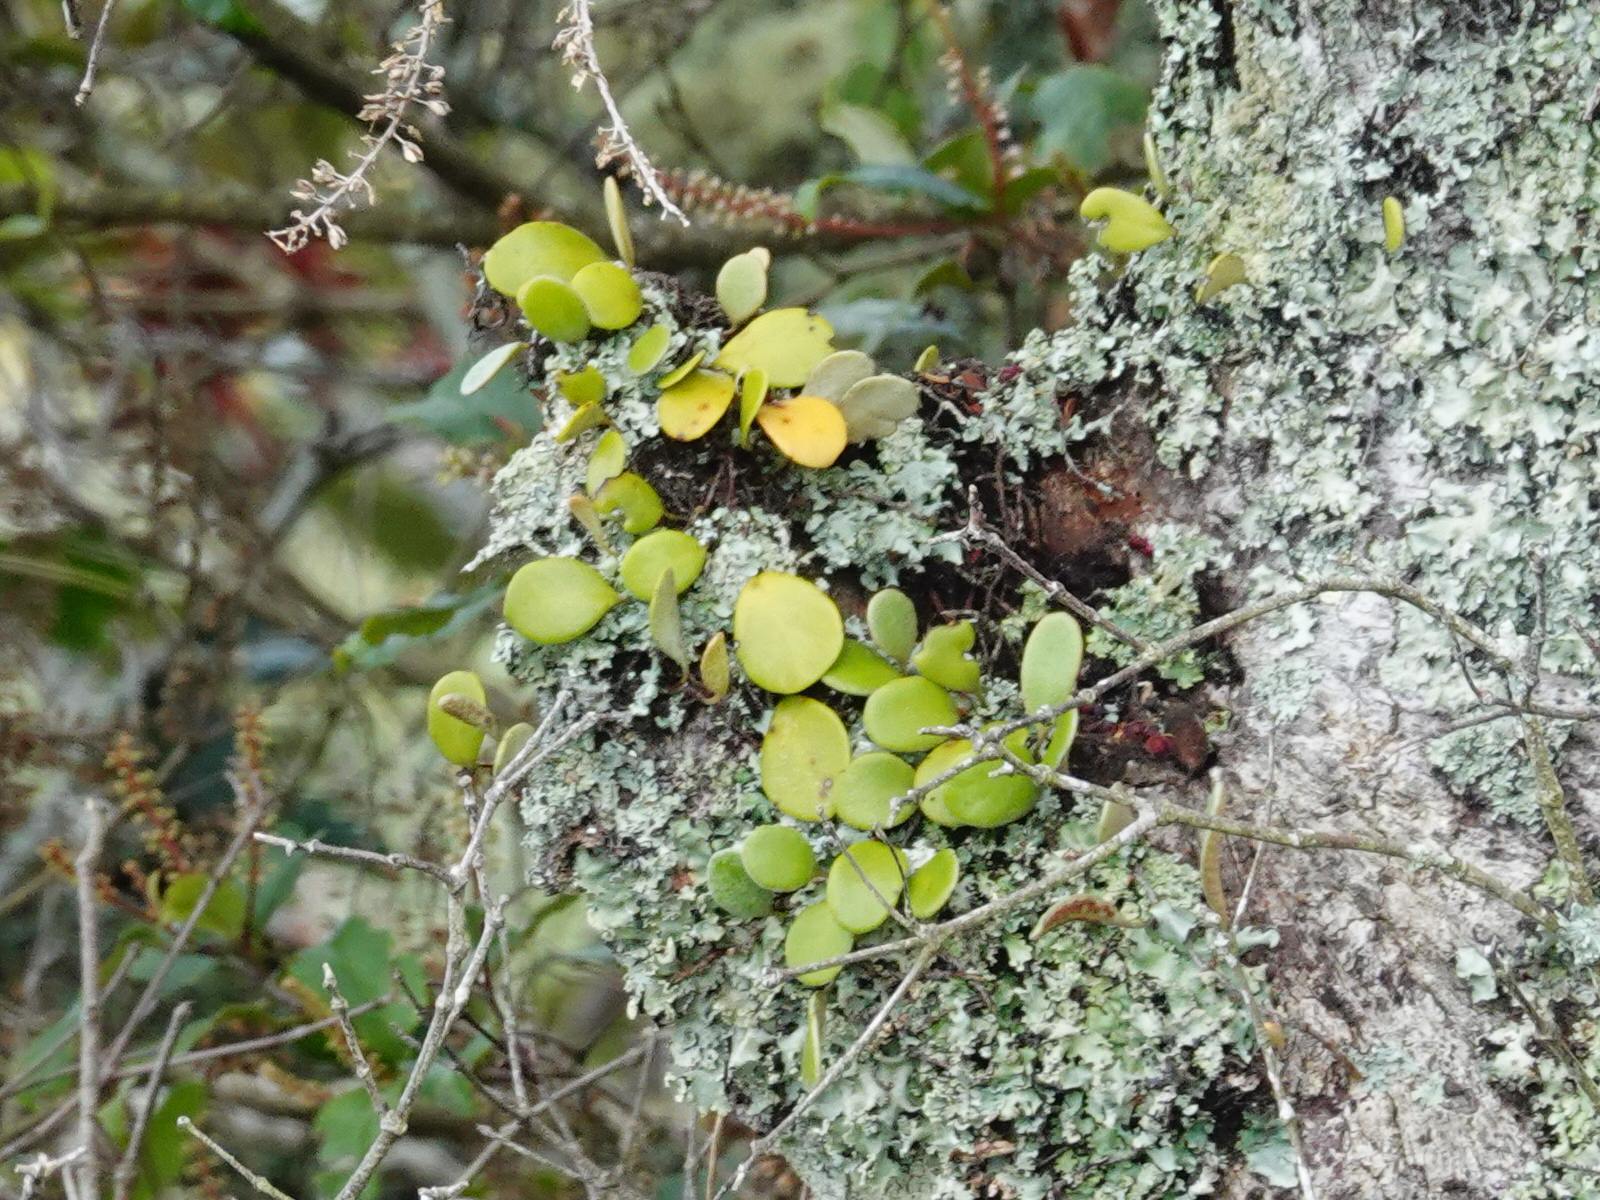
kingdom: Plantae
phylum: Tracheophyta
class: Polypodiopsida
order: Polypodiales
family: Polypodiaceae
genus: Pyrrosia
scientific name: Pyrrosia eleagnifolia
